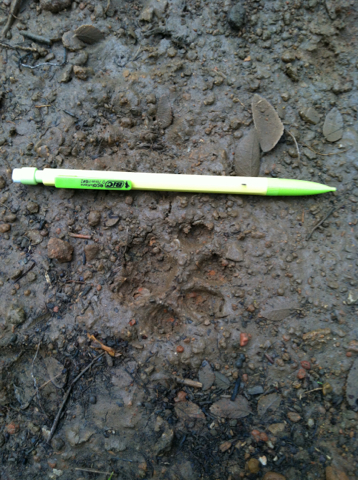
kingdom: Animalia
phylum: Chordata
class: Mammalia
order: Carnivora
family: Felidae
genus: Lynx
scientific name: Lynx rufus
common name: Bobcat
